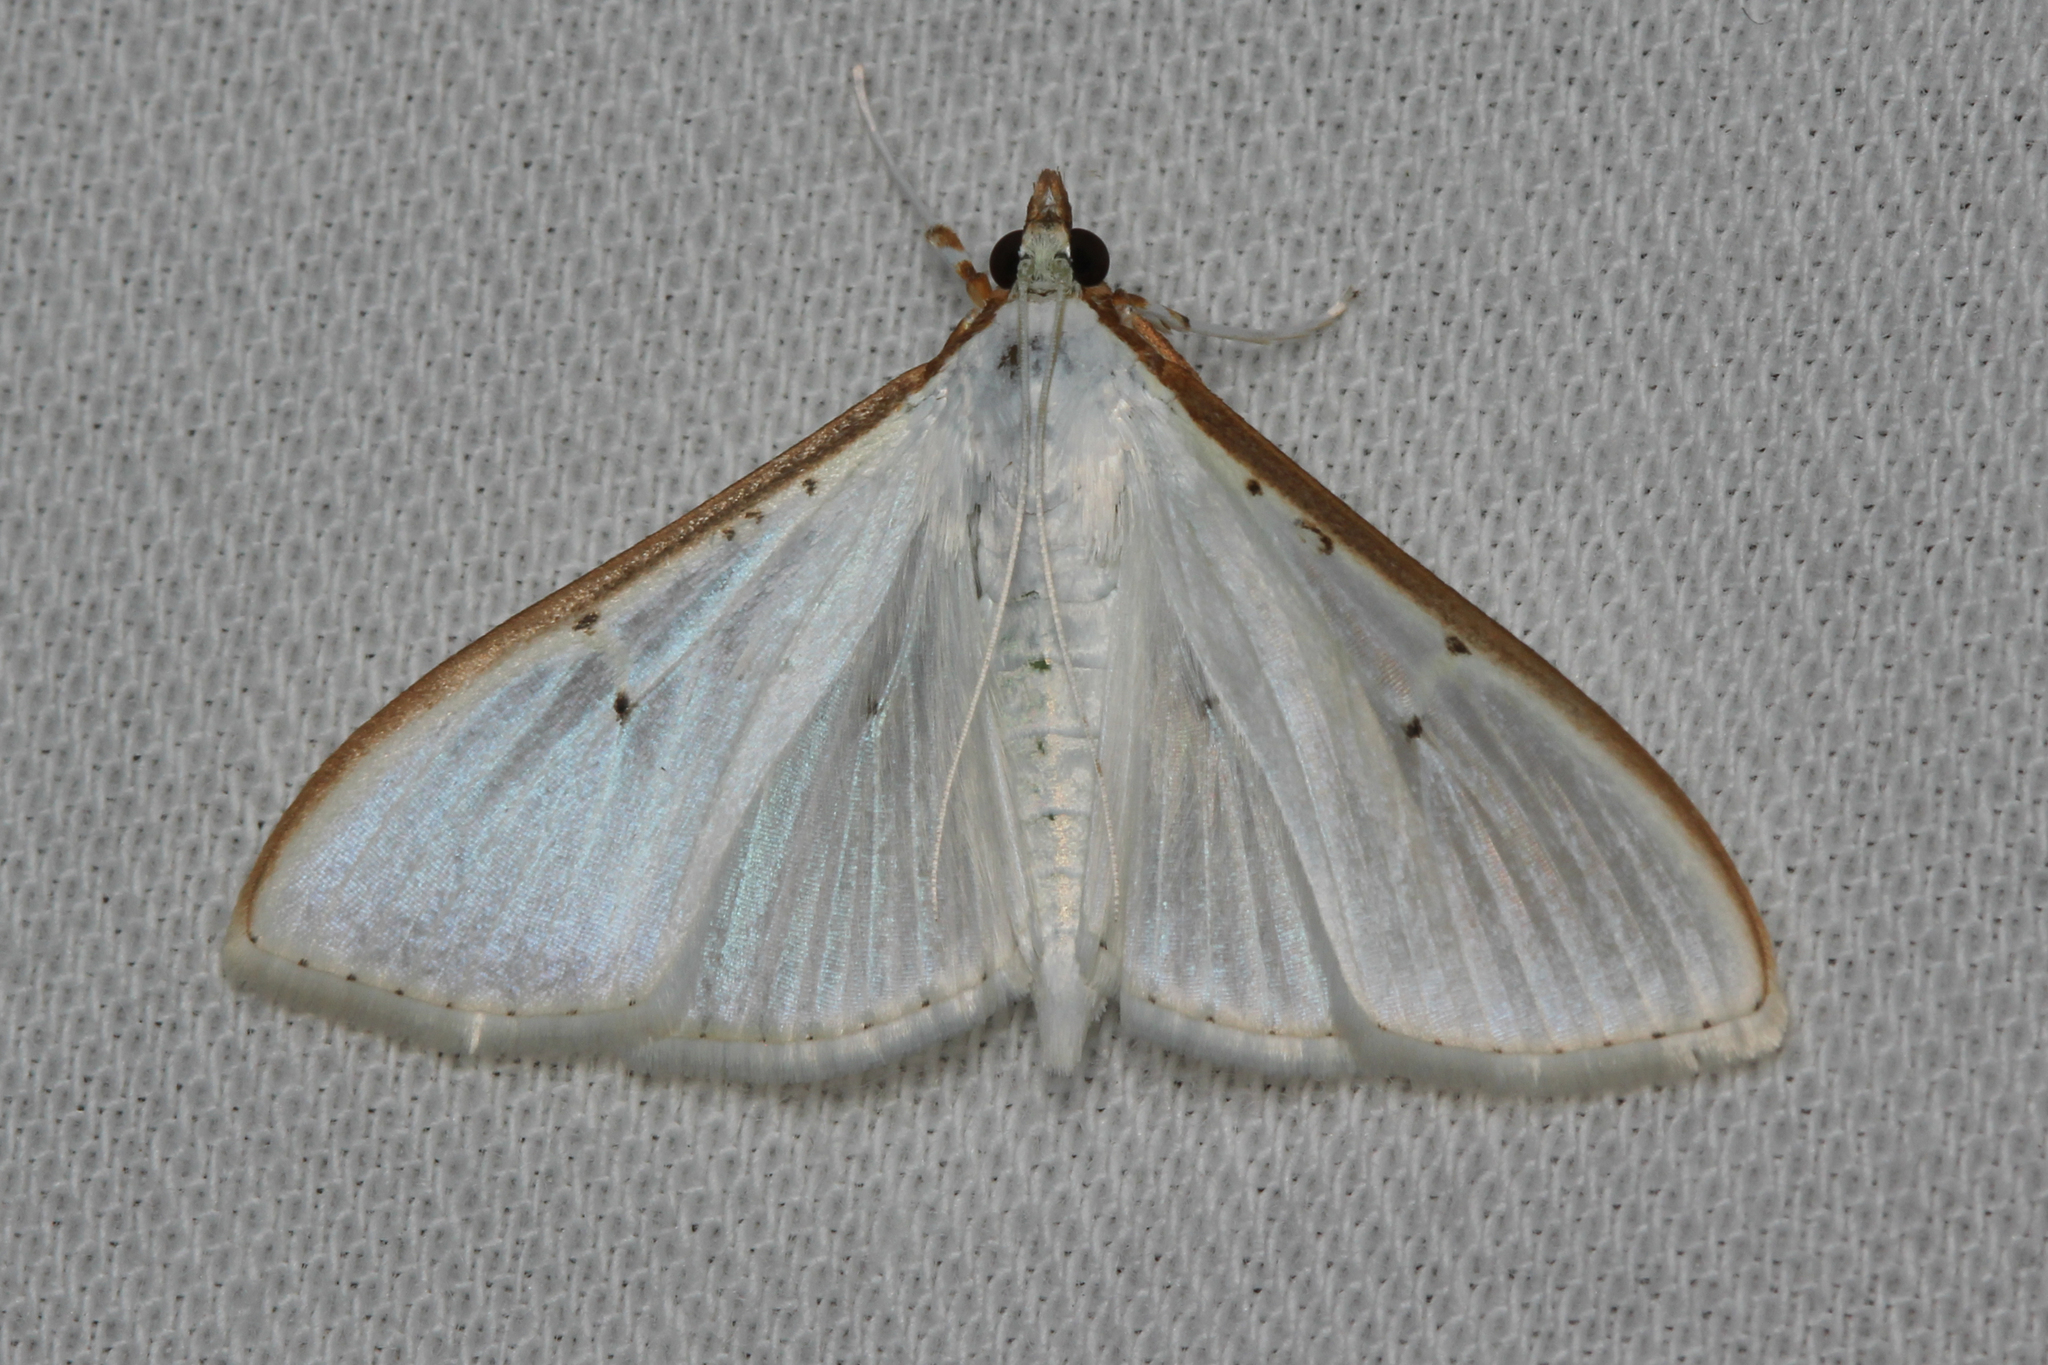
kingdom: Animalia
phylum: Arthropoda
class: Insecta
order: Lepidoptera
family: Crambidae
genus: Palpita
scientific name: Palpita vitrealis
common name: Olive-tree pearl
